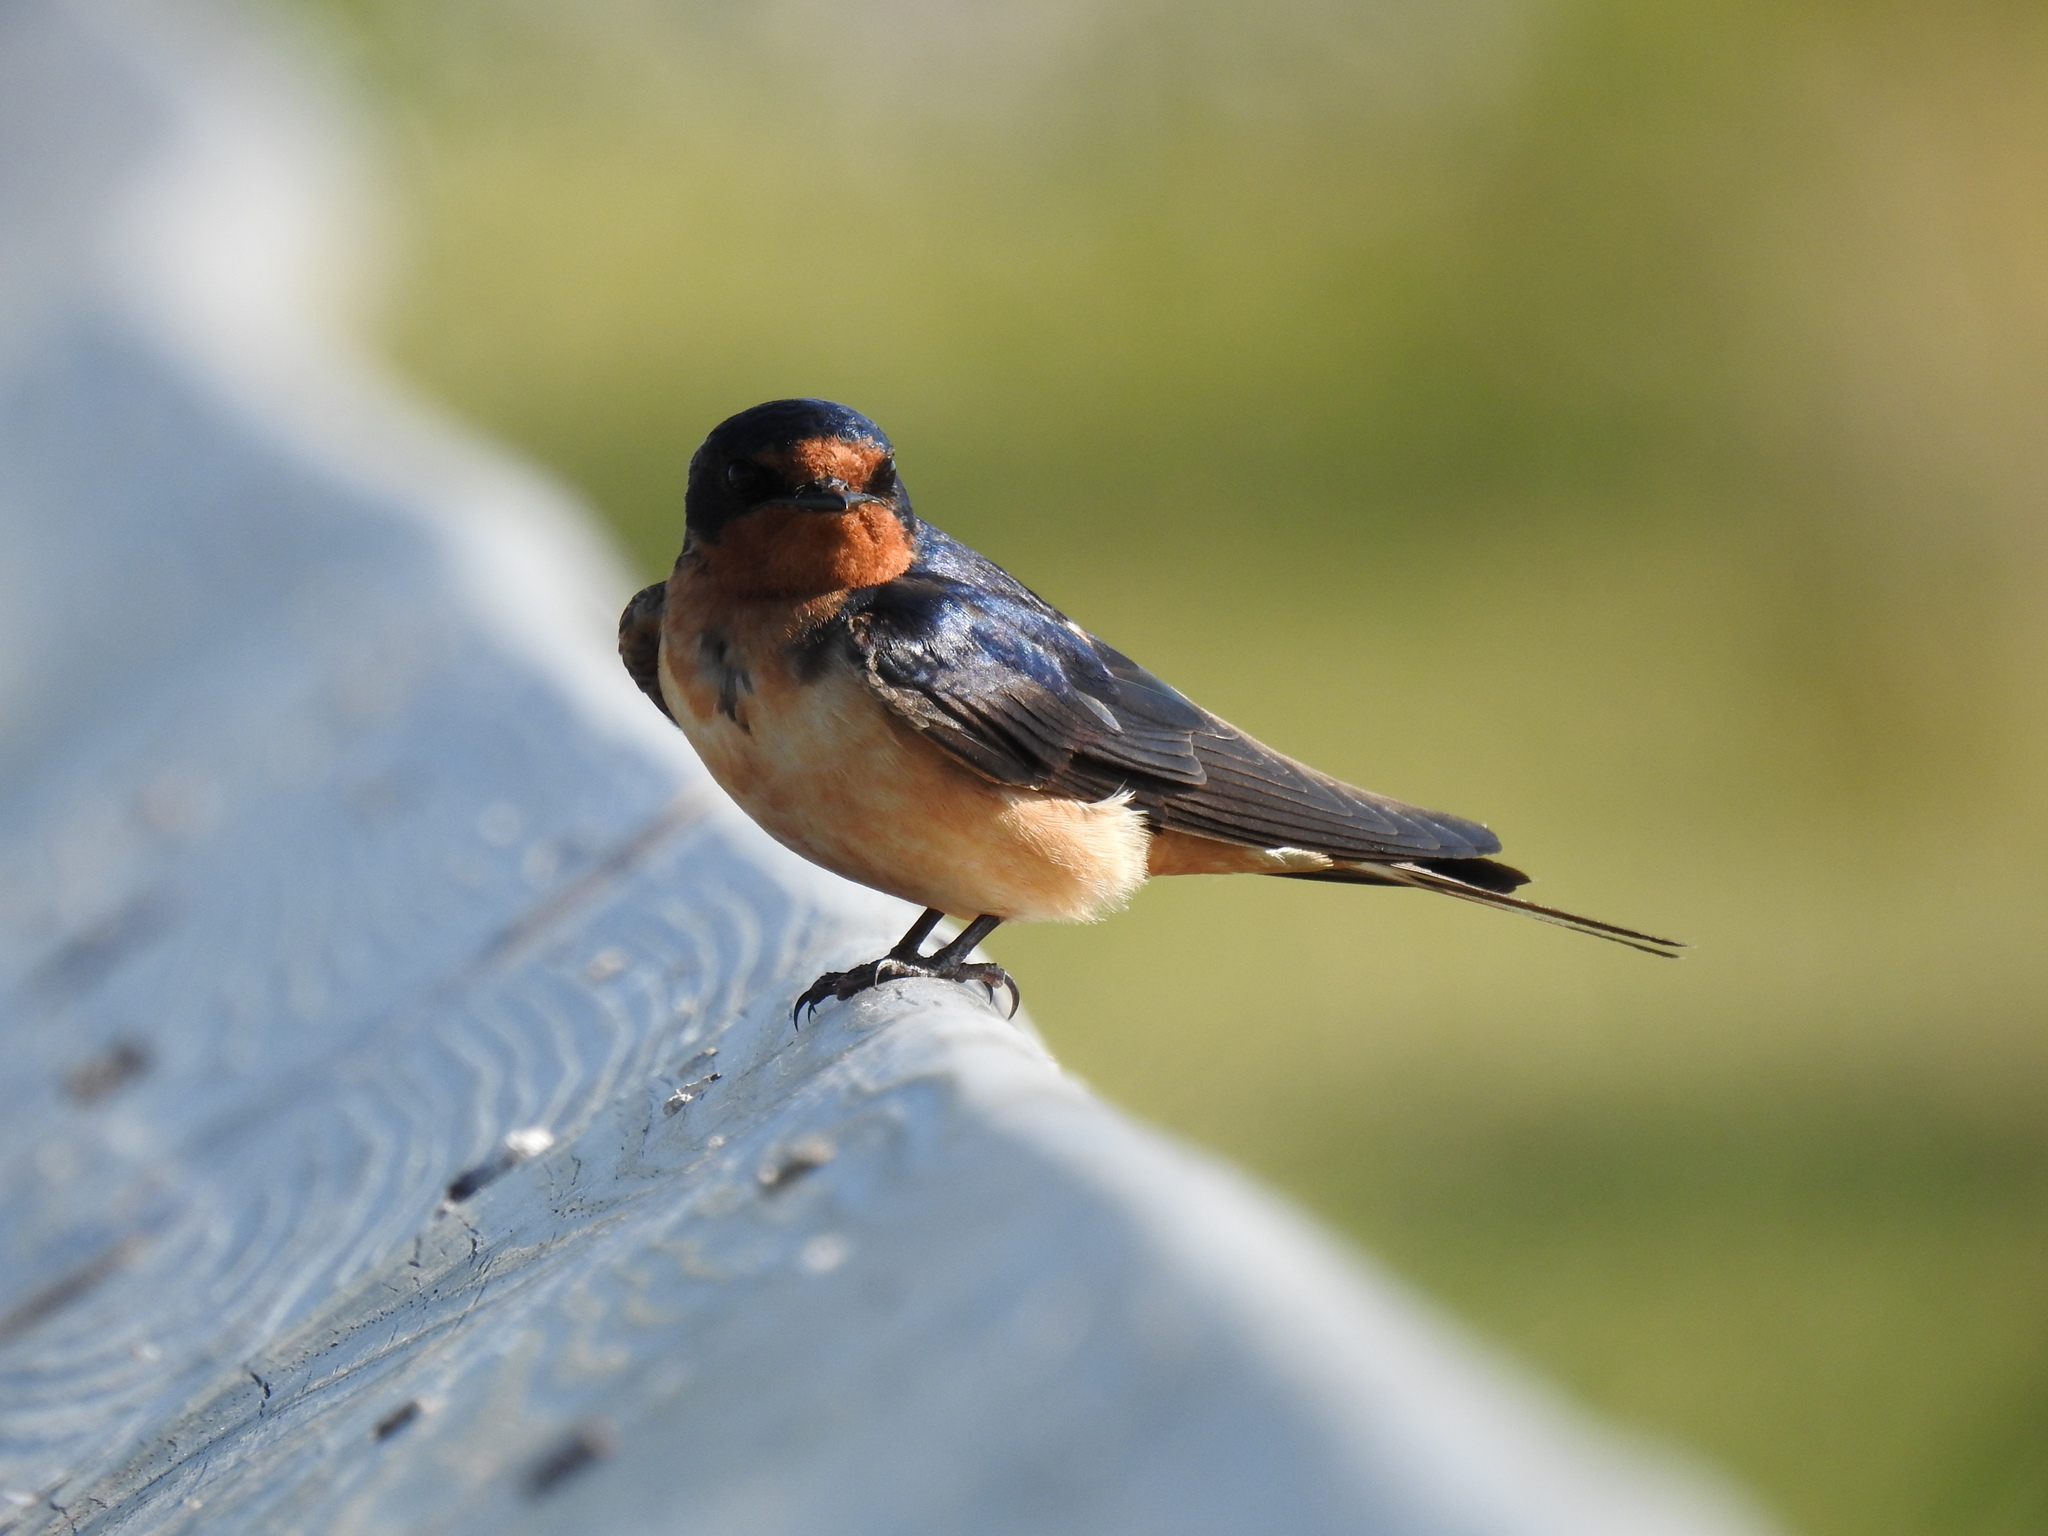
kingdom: Animalia
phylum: Chordata
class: Aves
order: Passeriformes
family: Hirundinidae
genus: Hirundo
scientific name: Hirundo rustica
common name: Barn swallow
